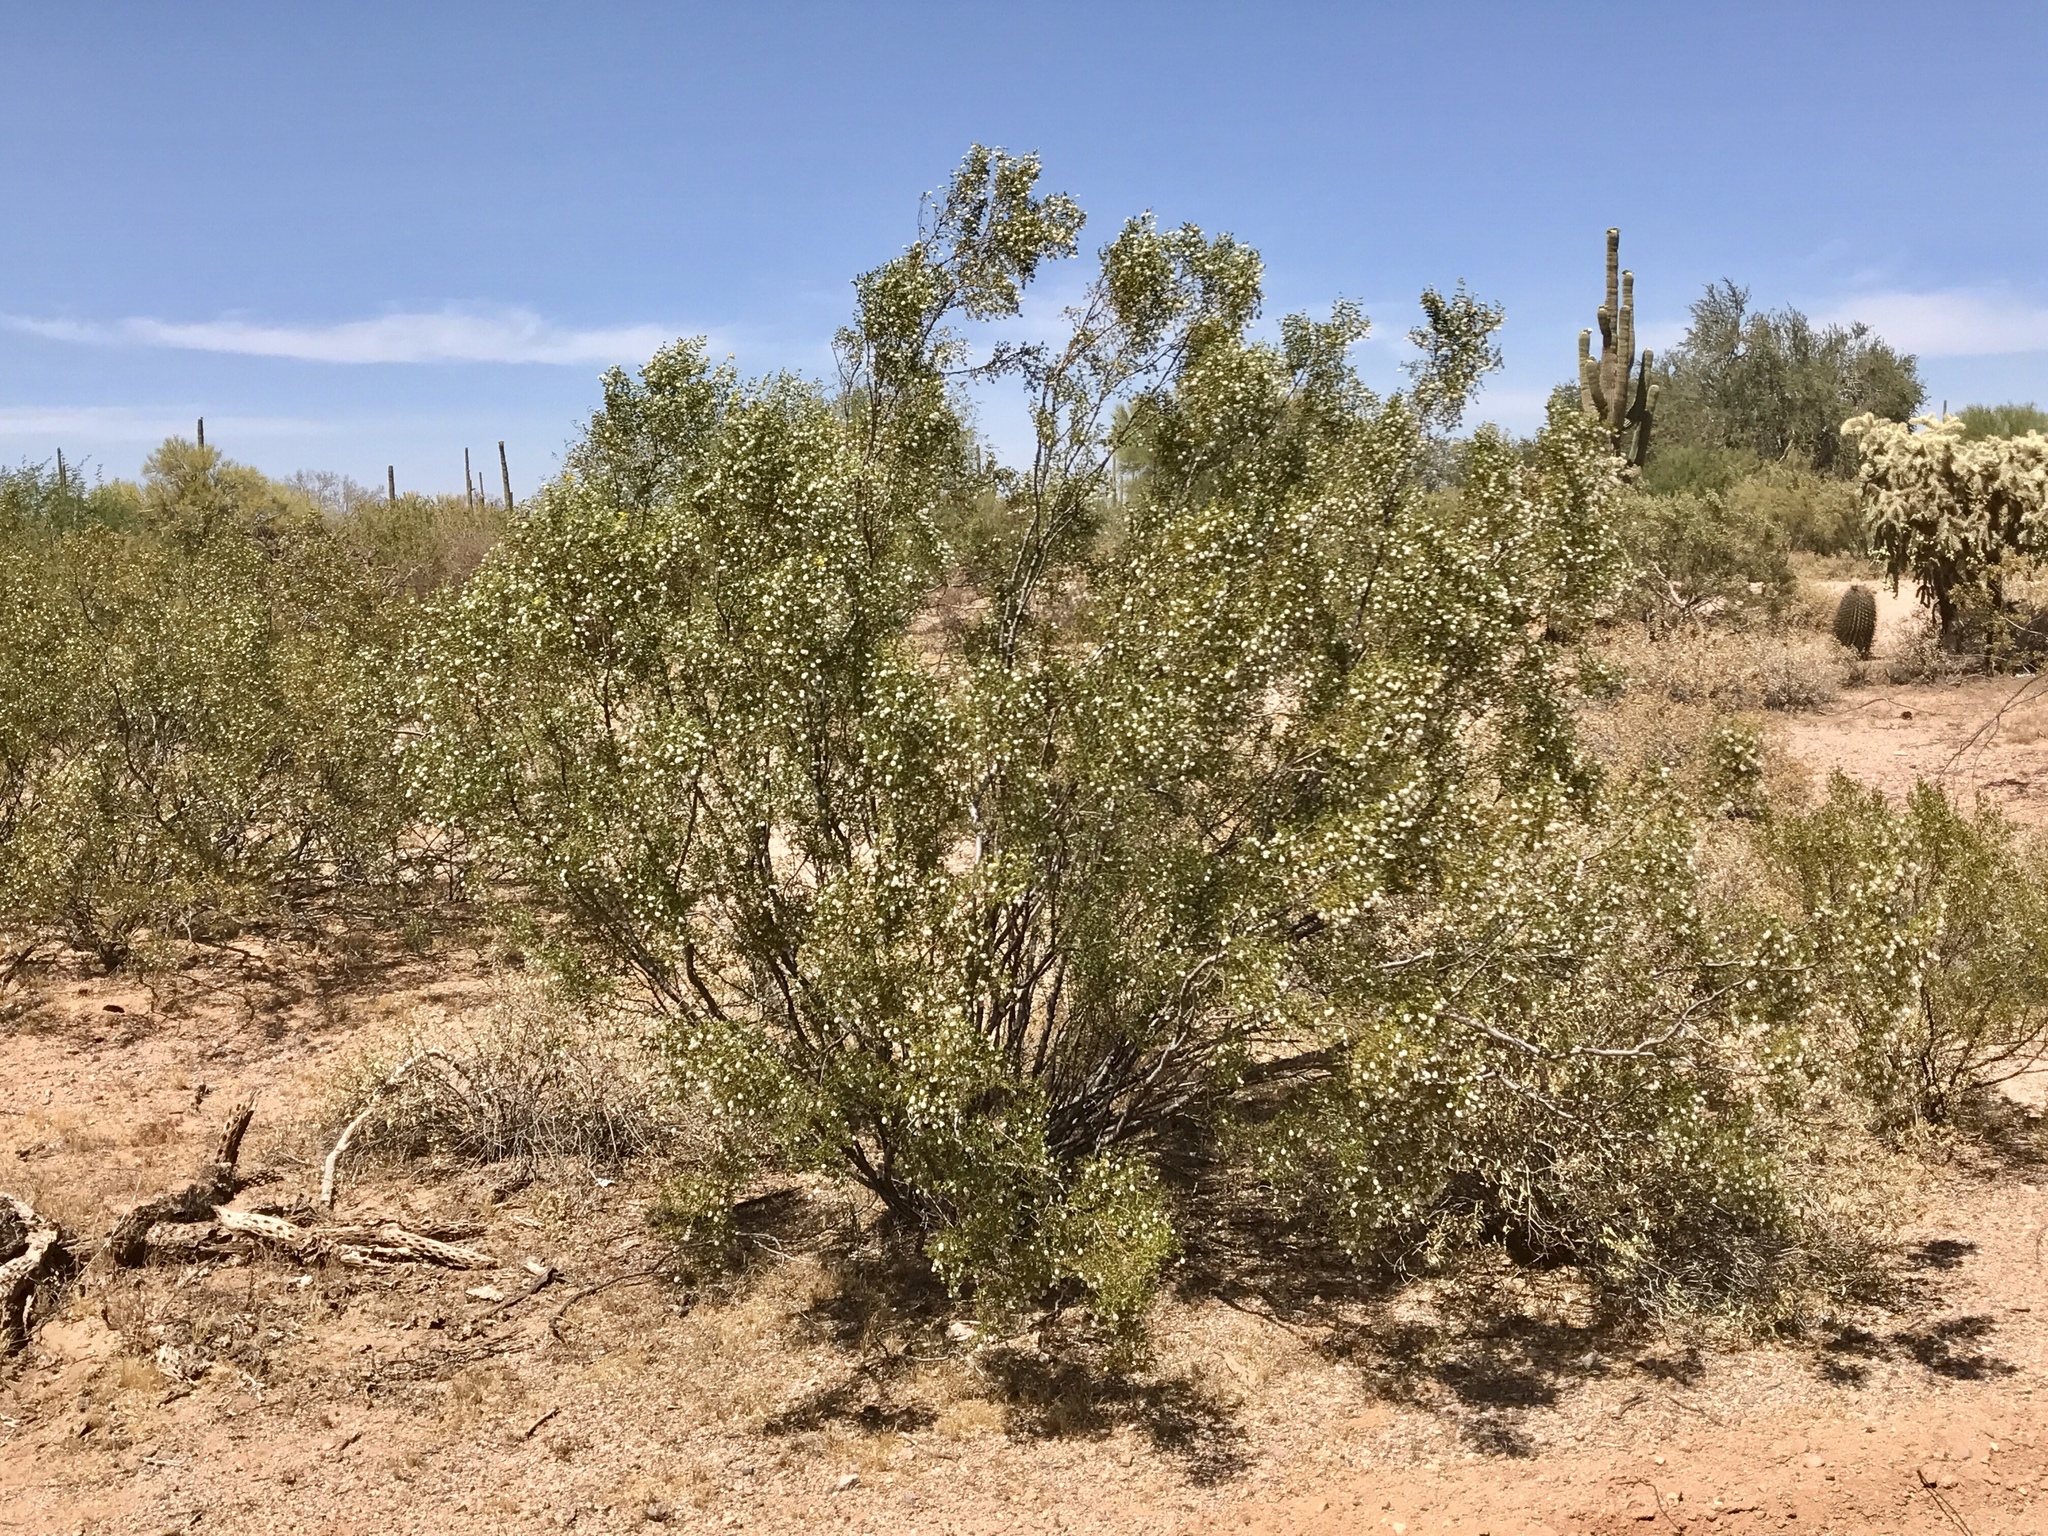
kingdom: Plantae
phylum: Tracheophyta
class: Magnoliopsida
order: Zygophyllales
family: Zygophyllaceae
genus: Larrea
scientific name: Larrea tridentata
